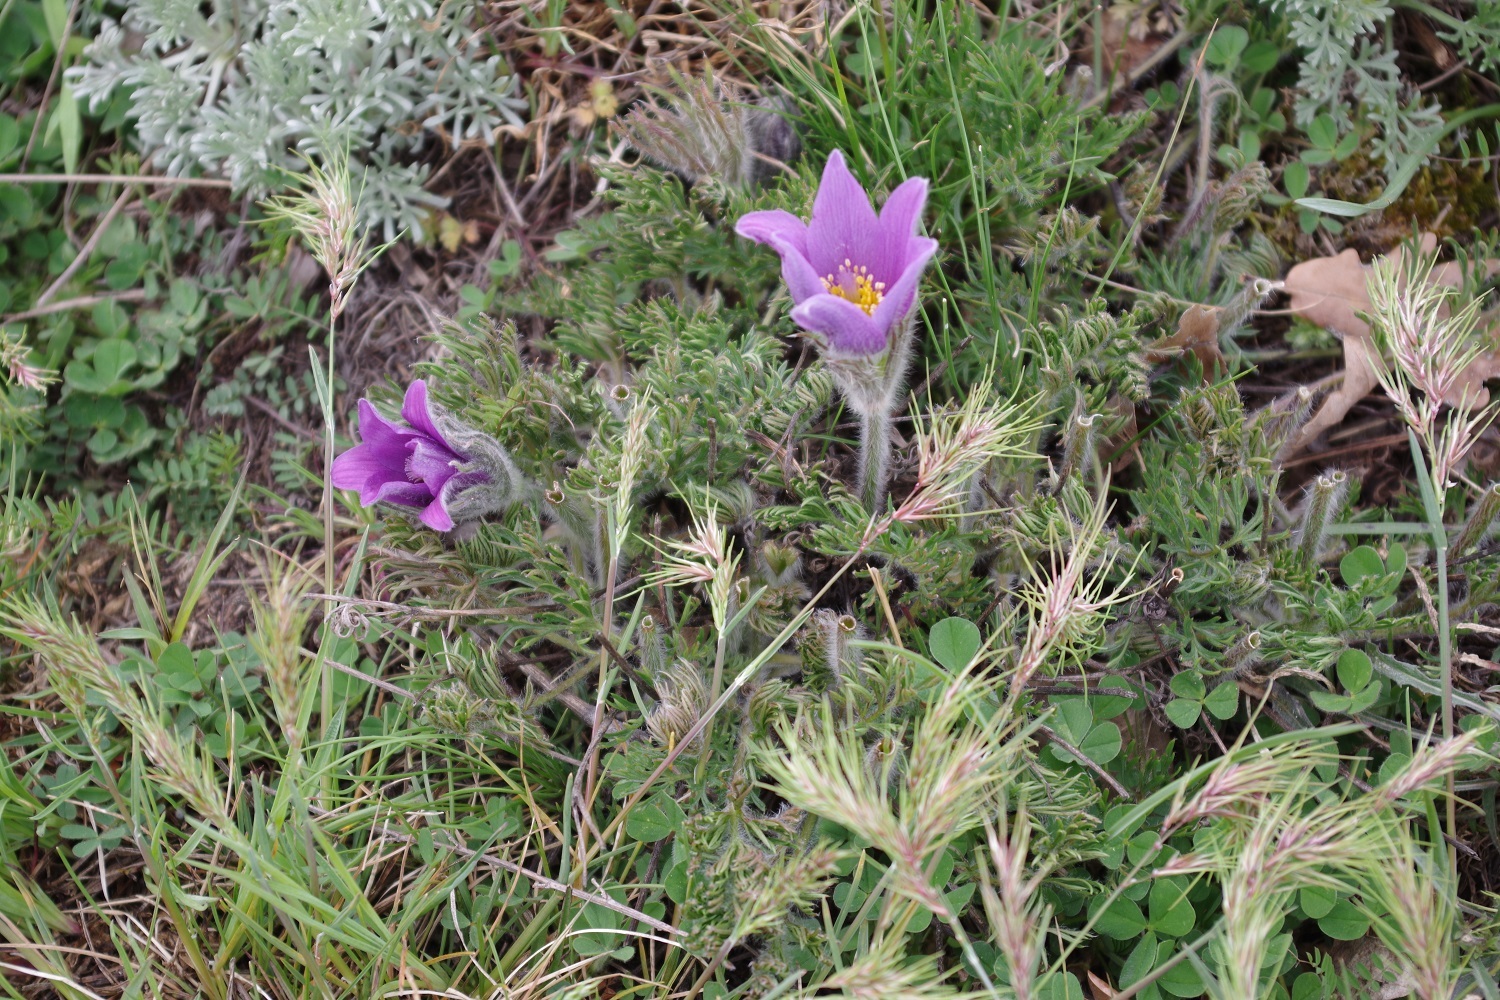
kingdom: Plantae
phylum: Tracheophyta
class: Magnoliopsida
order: Ranunculales
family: Ranunculaceae
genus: Pulsatilla
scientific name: Pulsatilla vulgaris
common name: Pasqueflower
